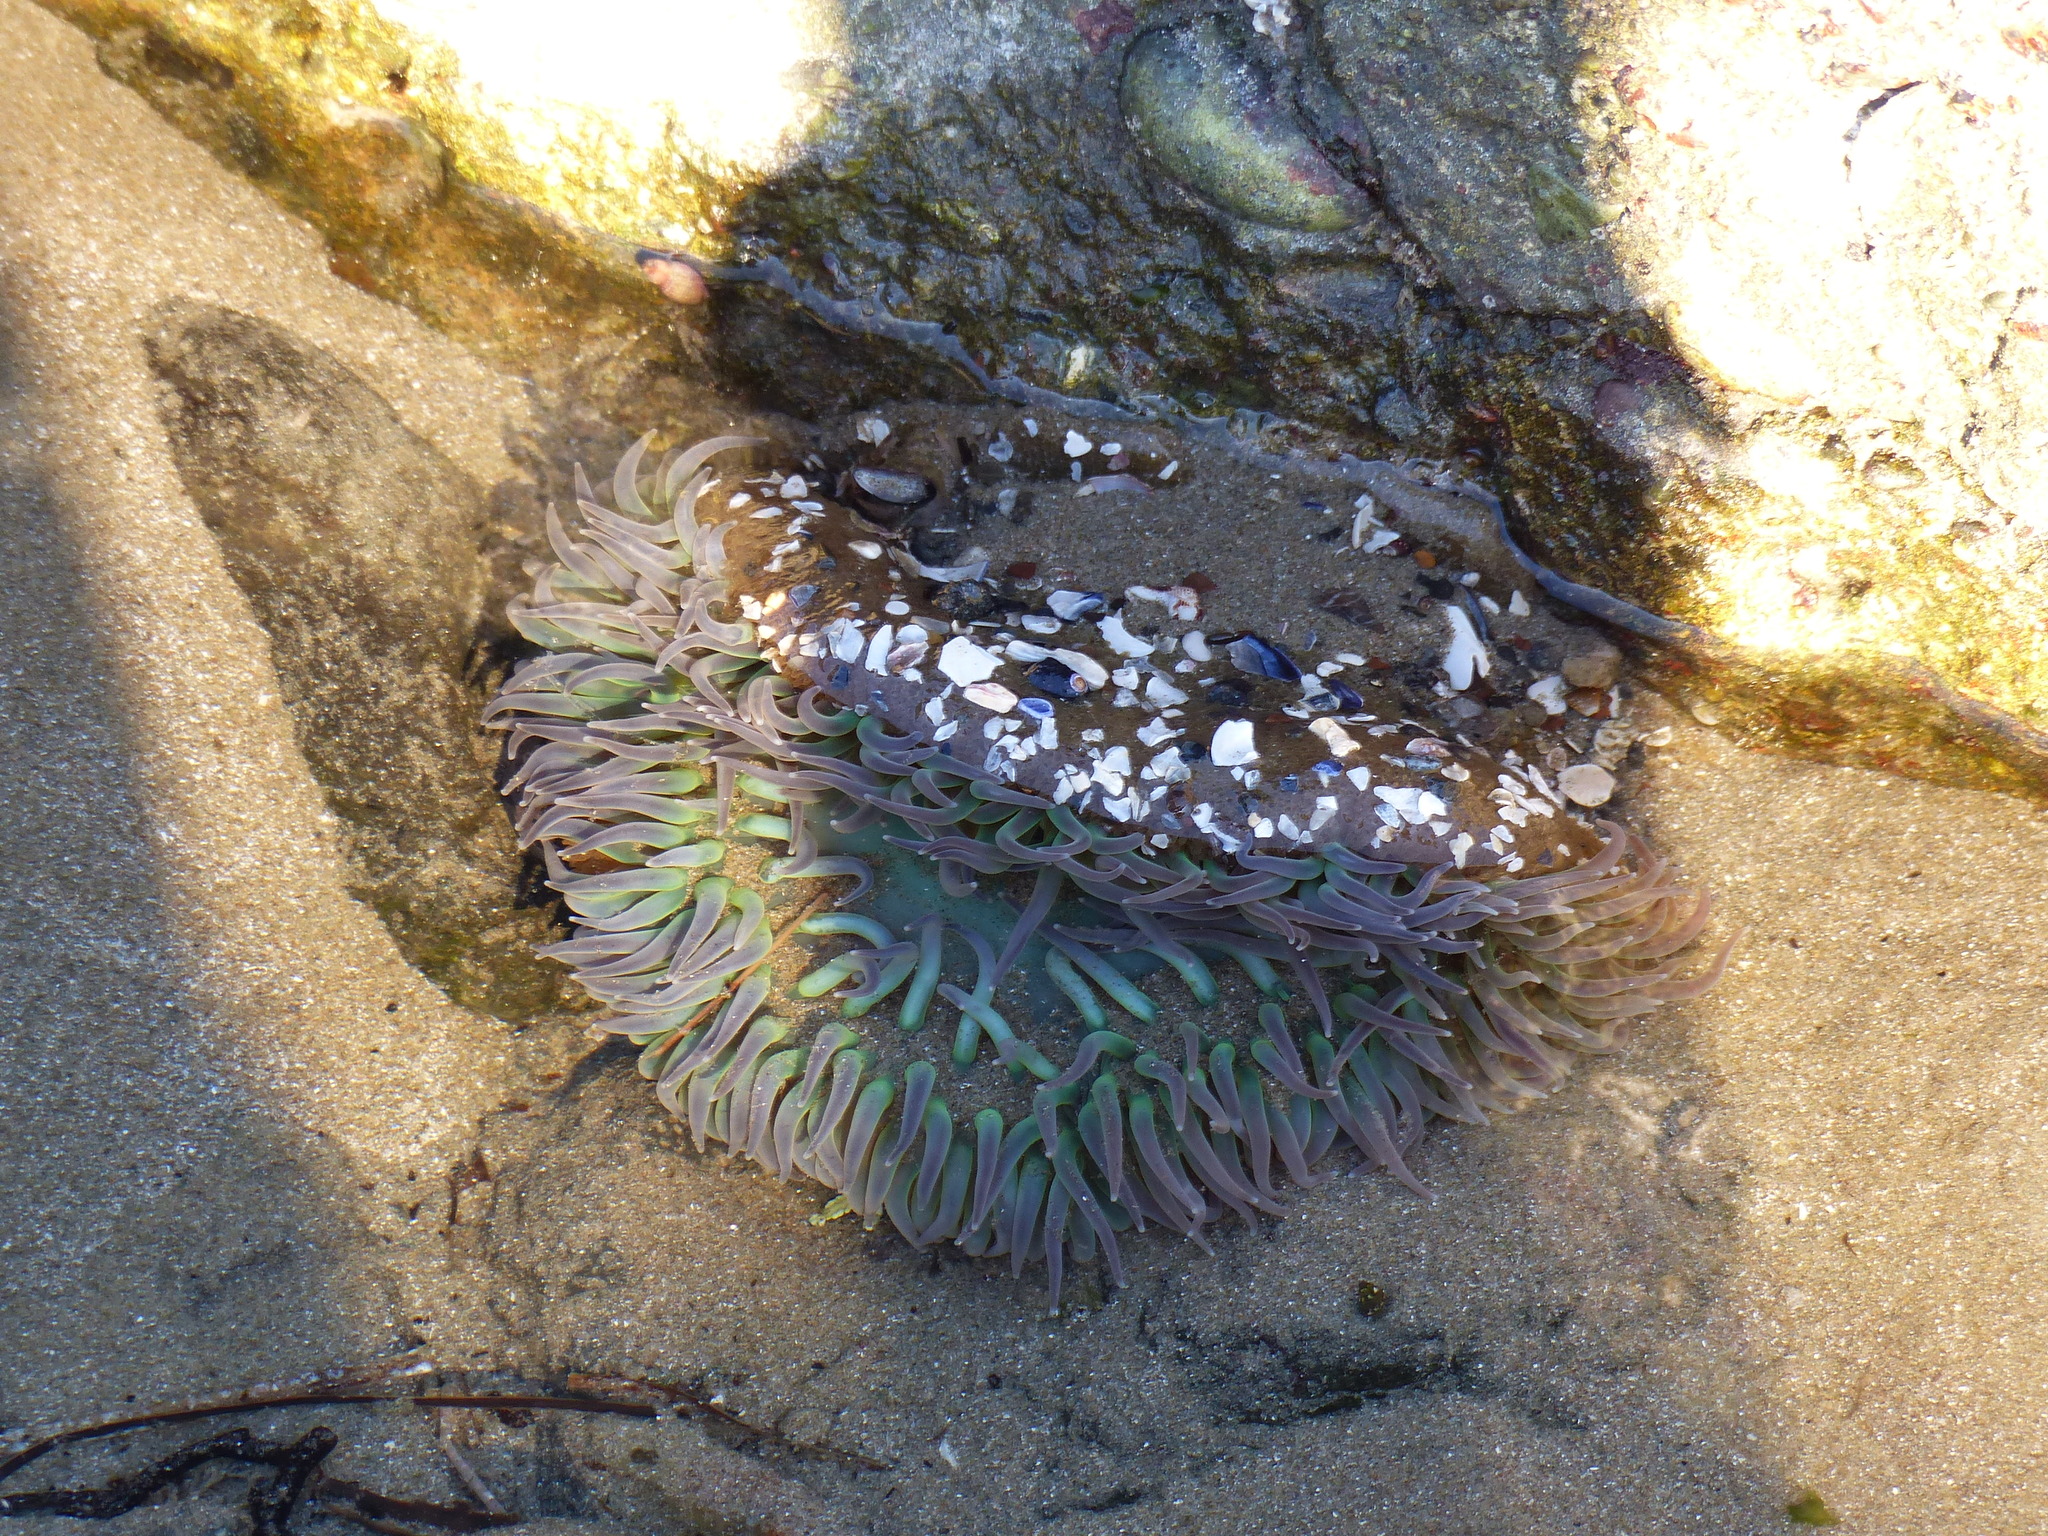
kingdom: Animalia
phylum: Cnidaria
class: Anthozoa
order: Actiniaria
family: Actiniidae
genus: Anthopleura
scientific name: Anthopleura xanthogrammica
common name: Giant green anemone
